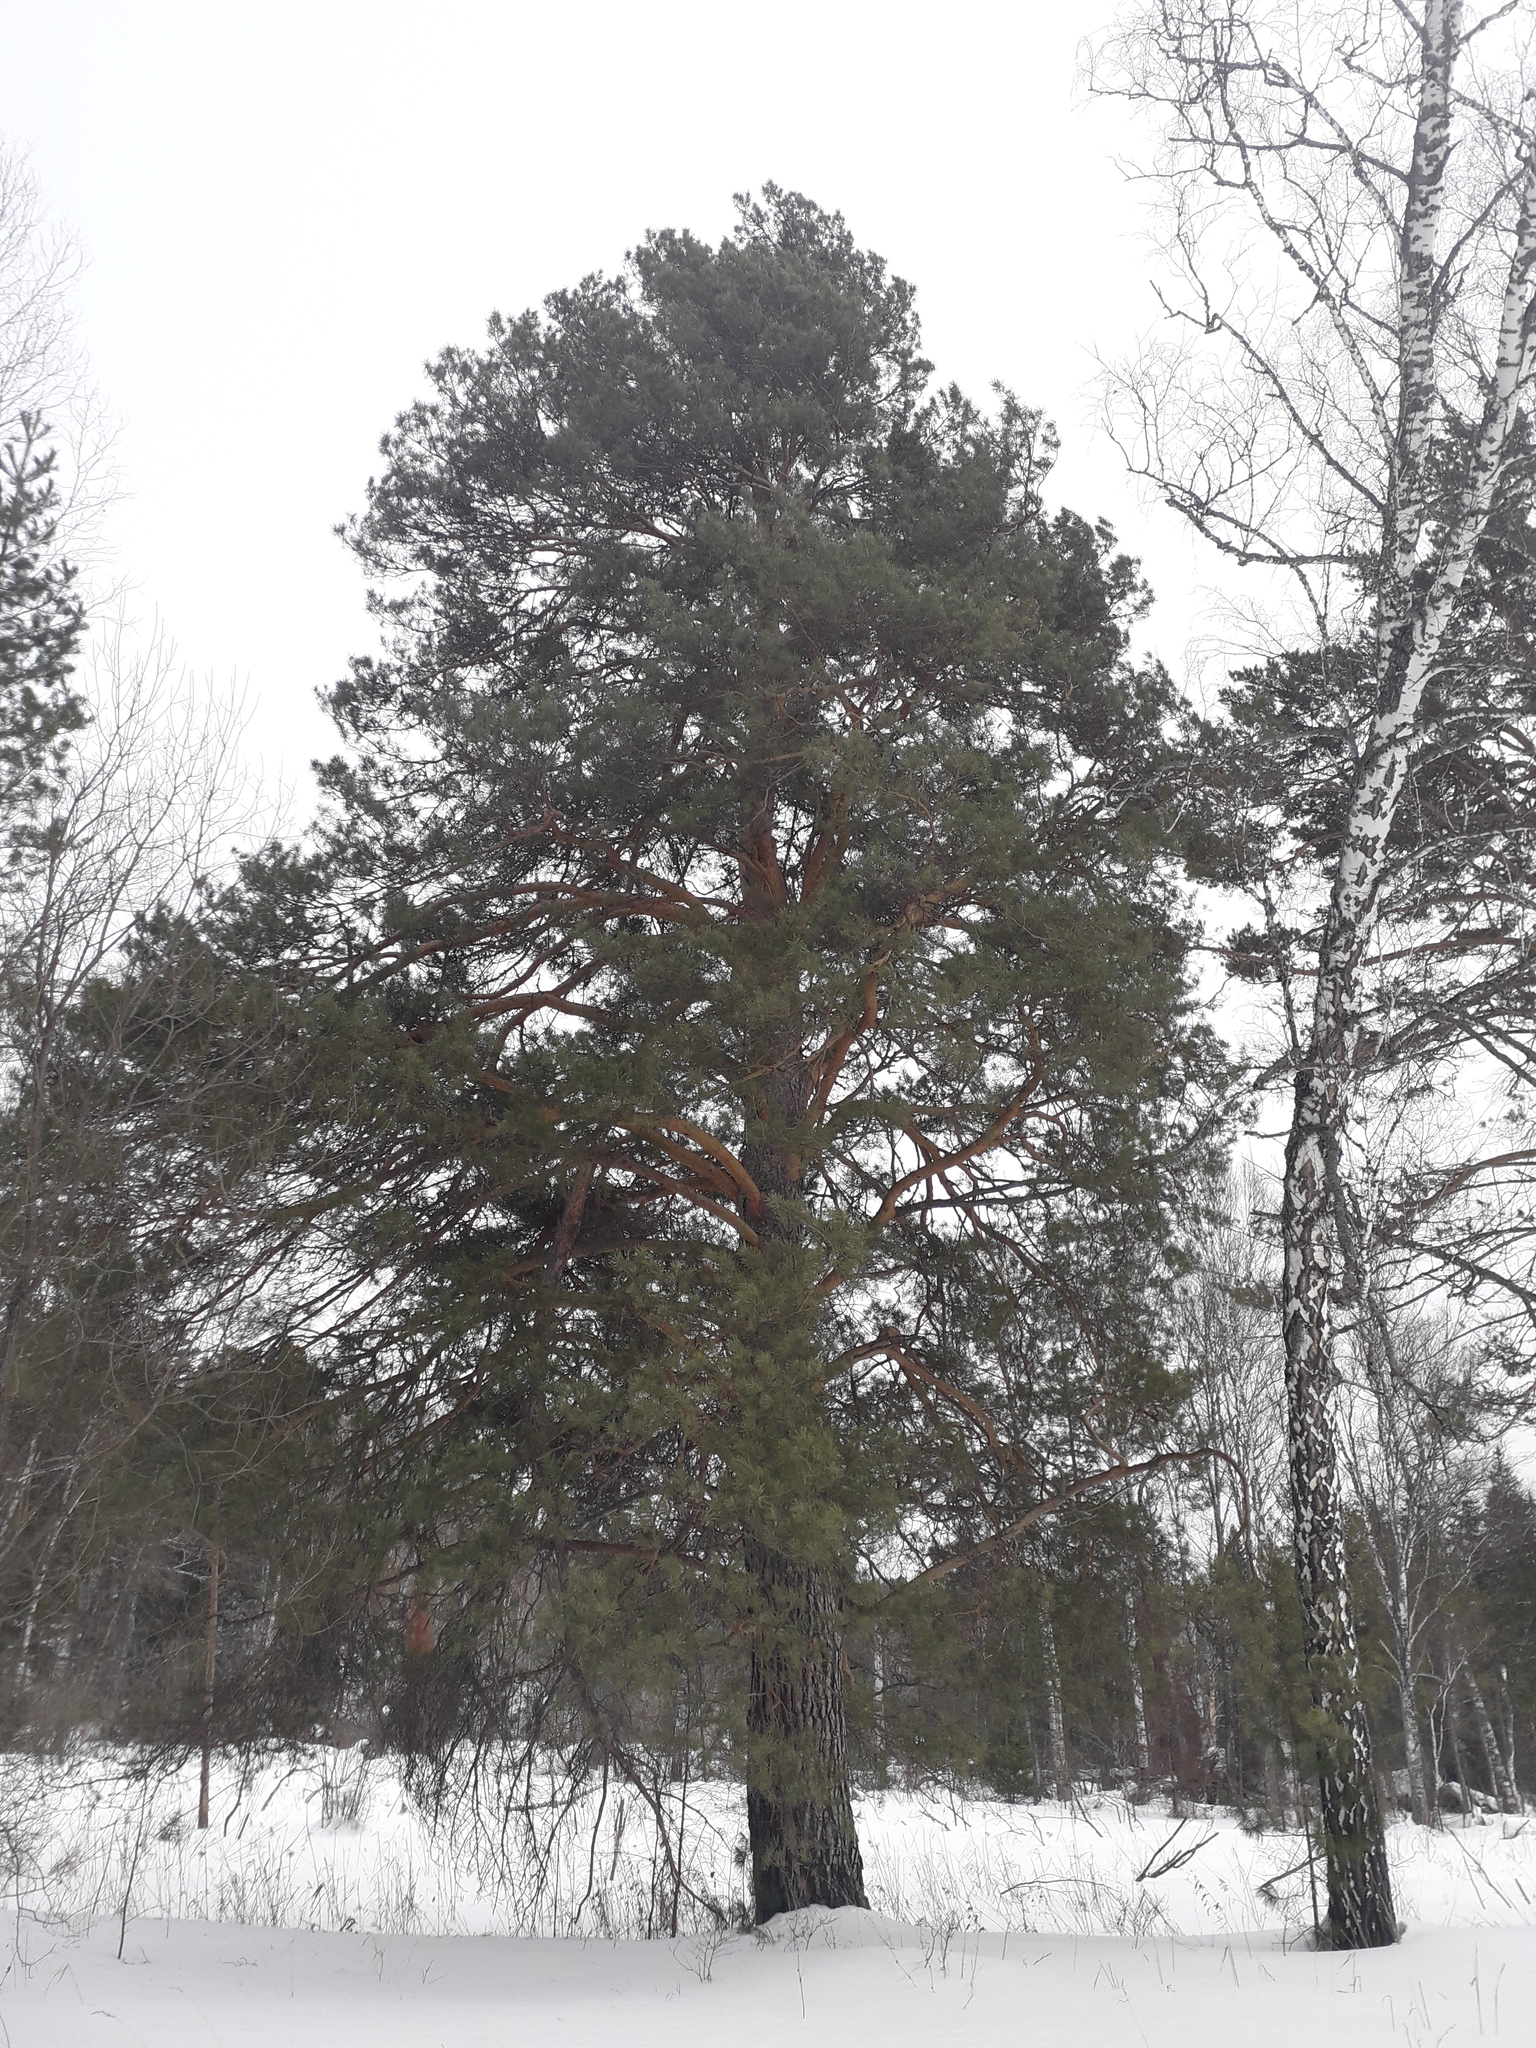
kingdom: Plantae
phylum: Tracheophyta
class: Pinopsida
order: Pinales
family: Pinaceae
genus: Pinus
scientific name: Pinus sylvestris
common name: Scots pine
